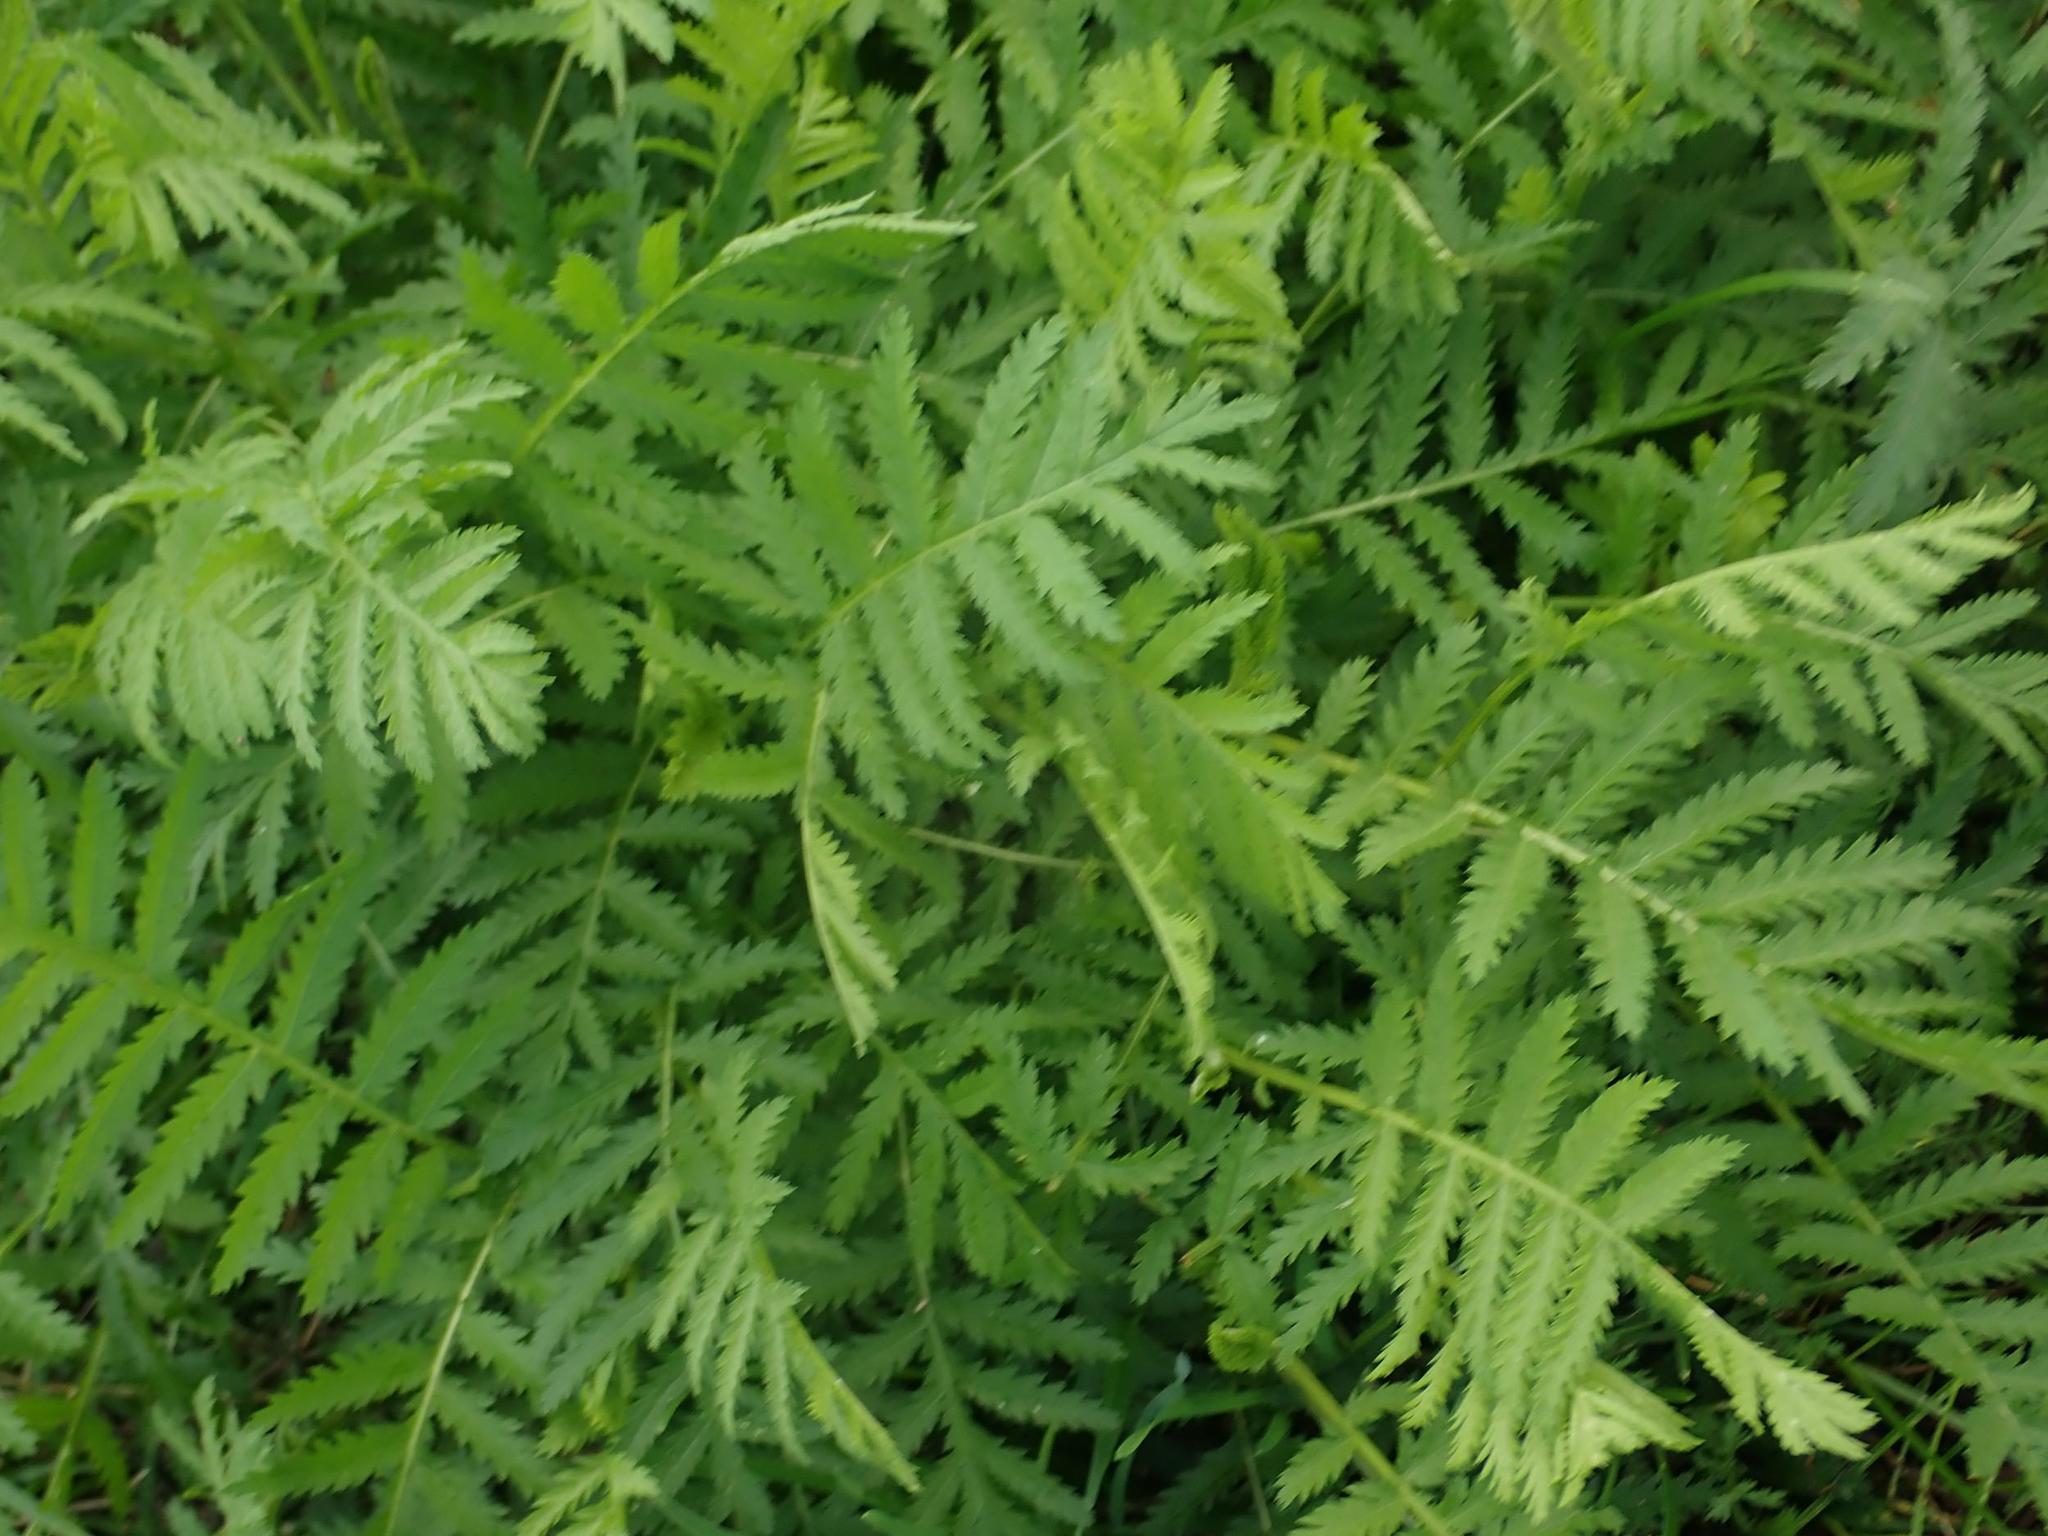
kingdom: Plantae
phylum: Tracheophyta
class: Magnoliopsida
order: Asterales
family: Asteraceae
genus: Tanacetum
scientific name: Tanacetum vulgare
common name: Common tansy
